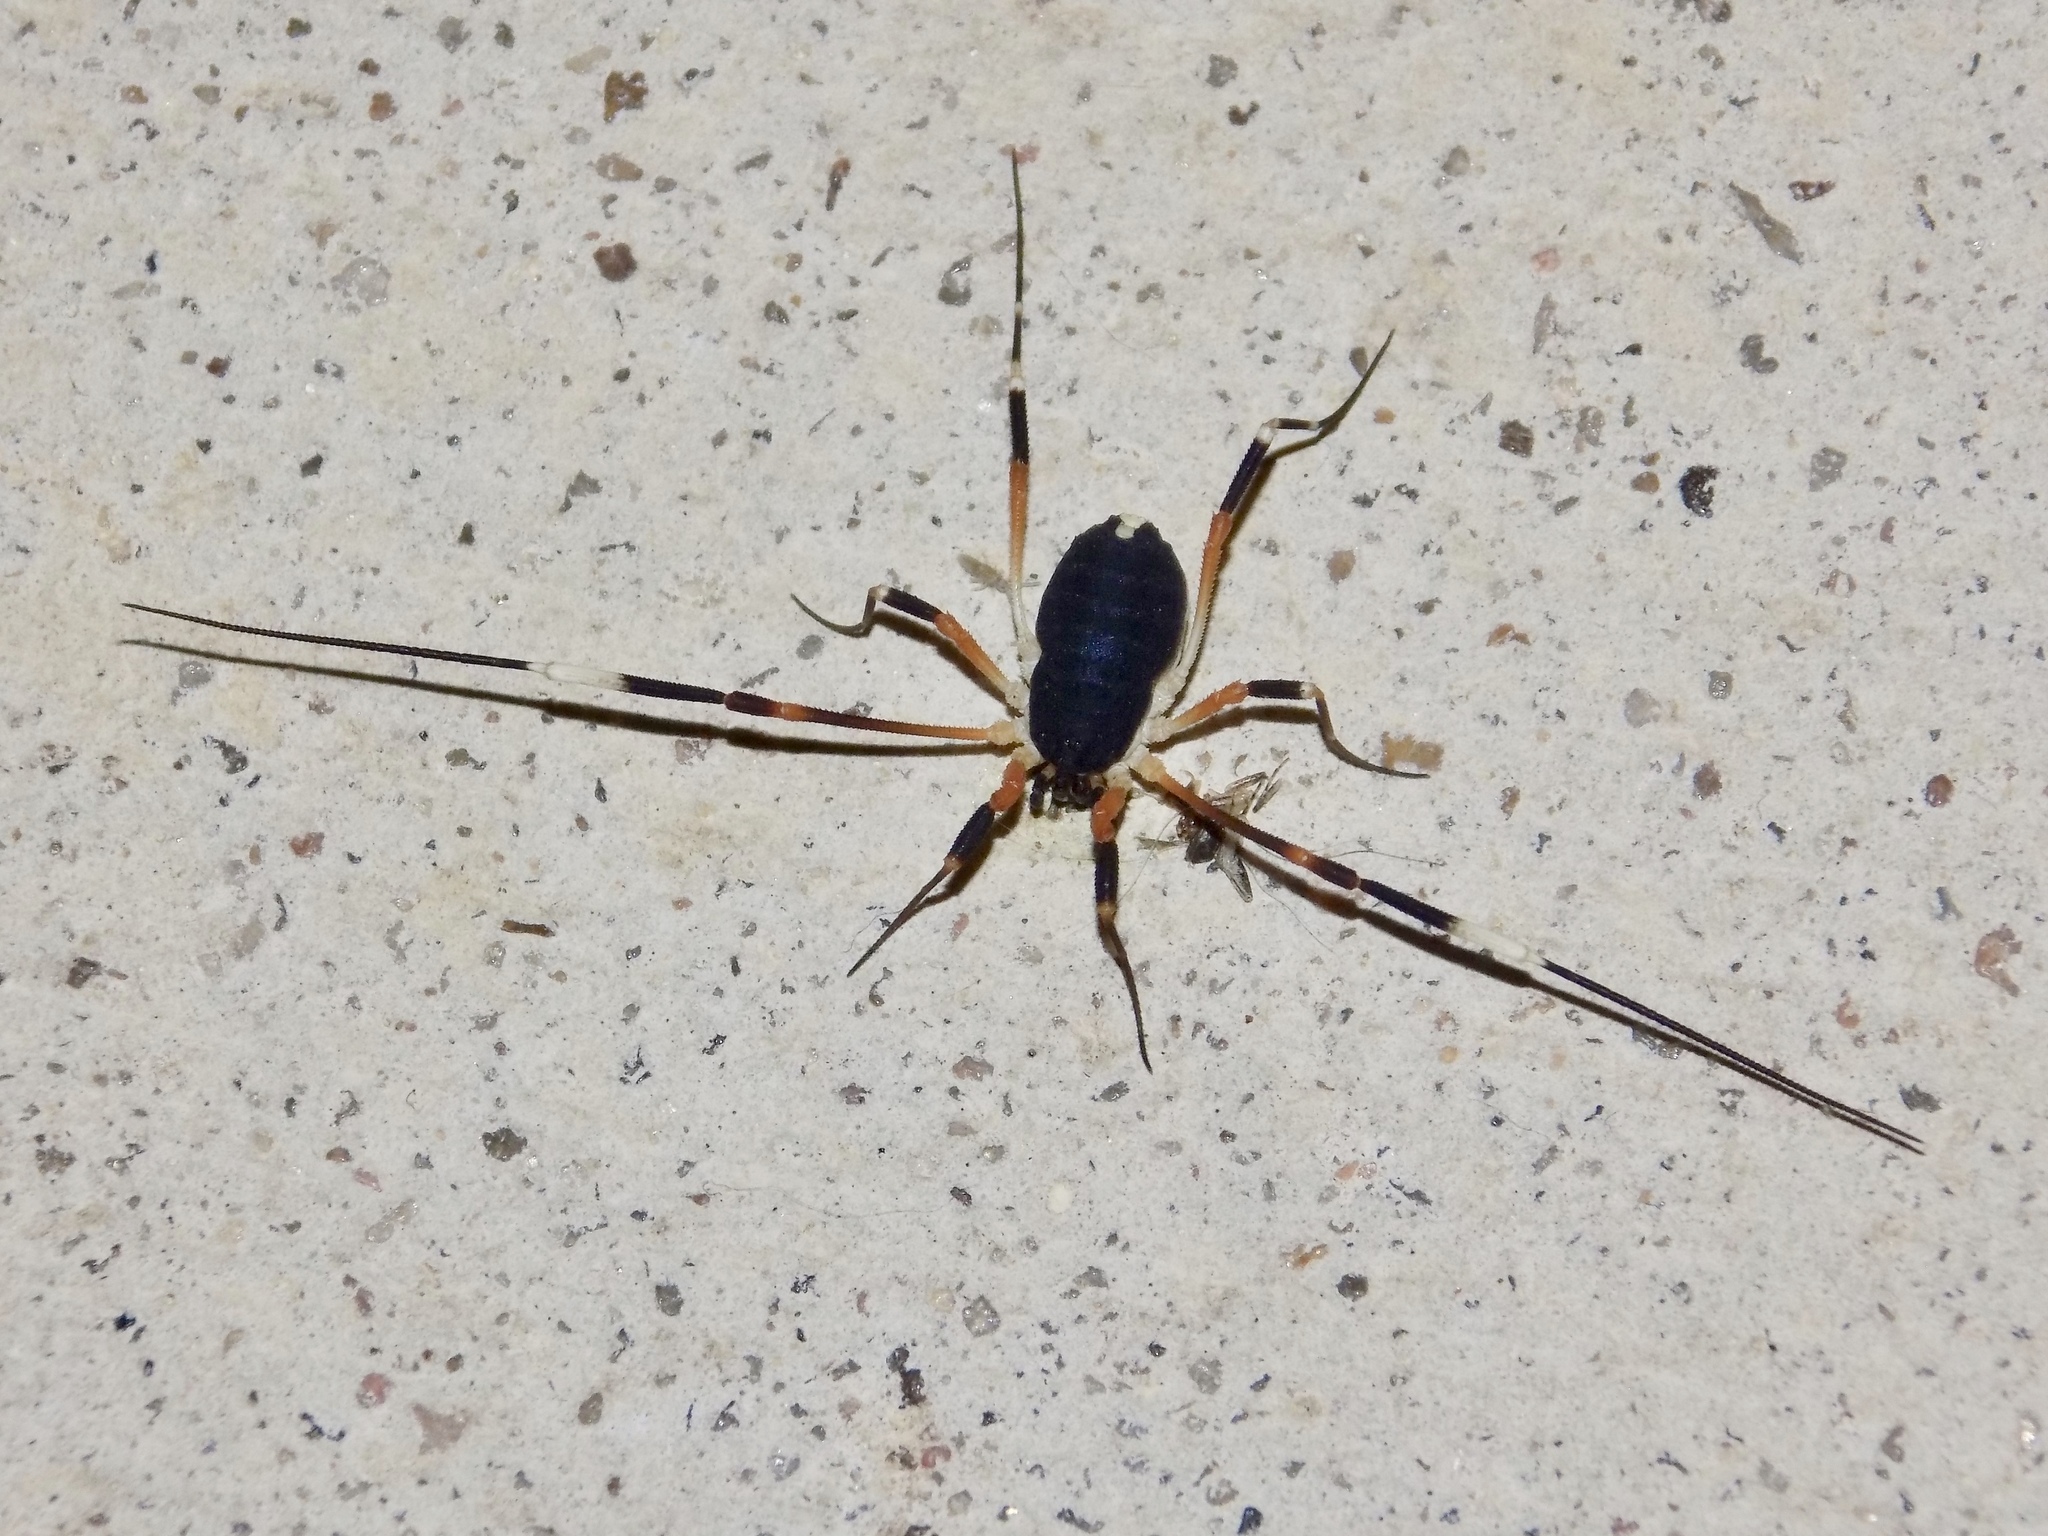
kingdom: Animalia
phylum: Arthropoda
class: Arachnida
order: Opiliones
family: Globipedidae
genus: Dalquestia
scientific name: Dalquestia formosa
